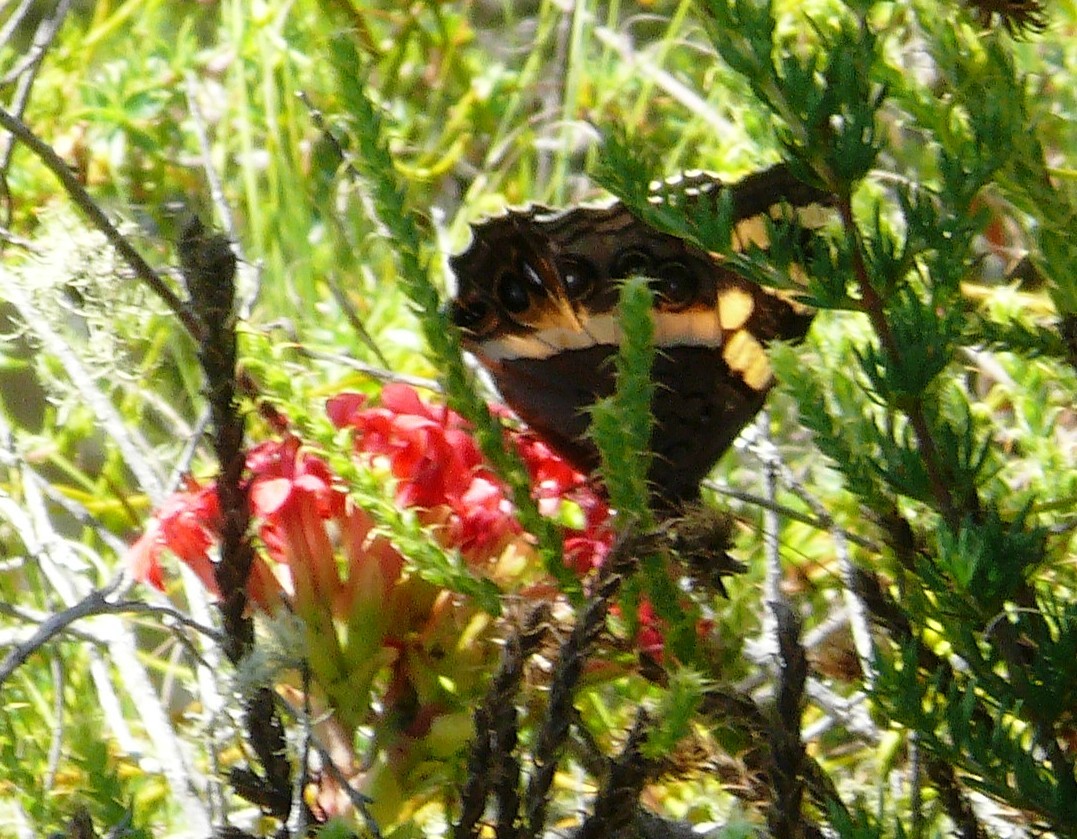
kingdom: Animalia
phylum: Arthropoda
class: Insecta
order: Lepidoptera
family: Nymphalidae
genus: Meneris
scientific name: Meneris Aeropetes tulbaghia
